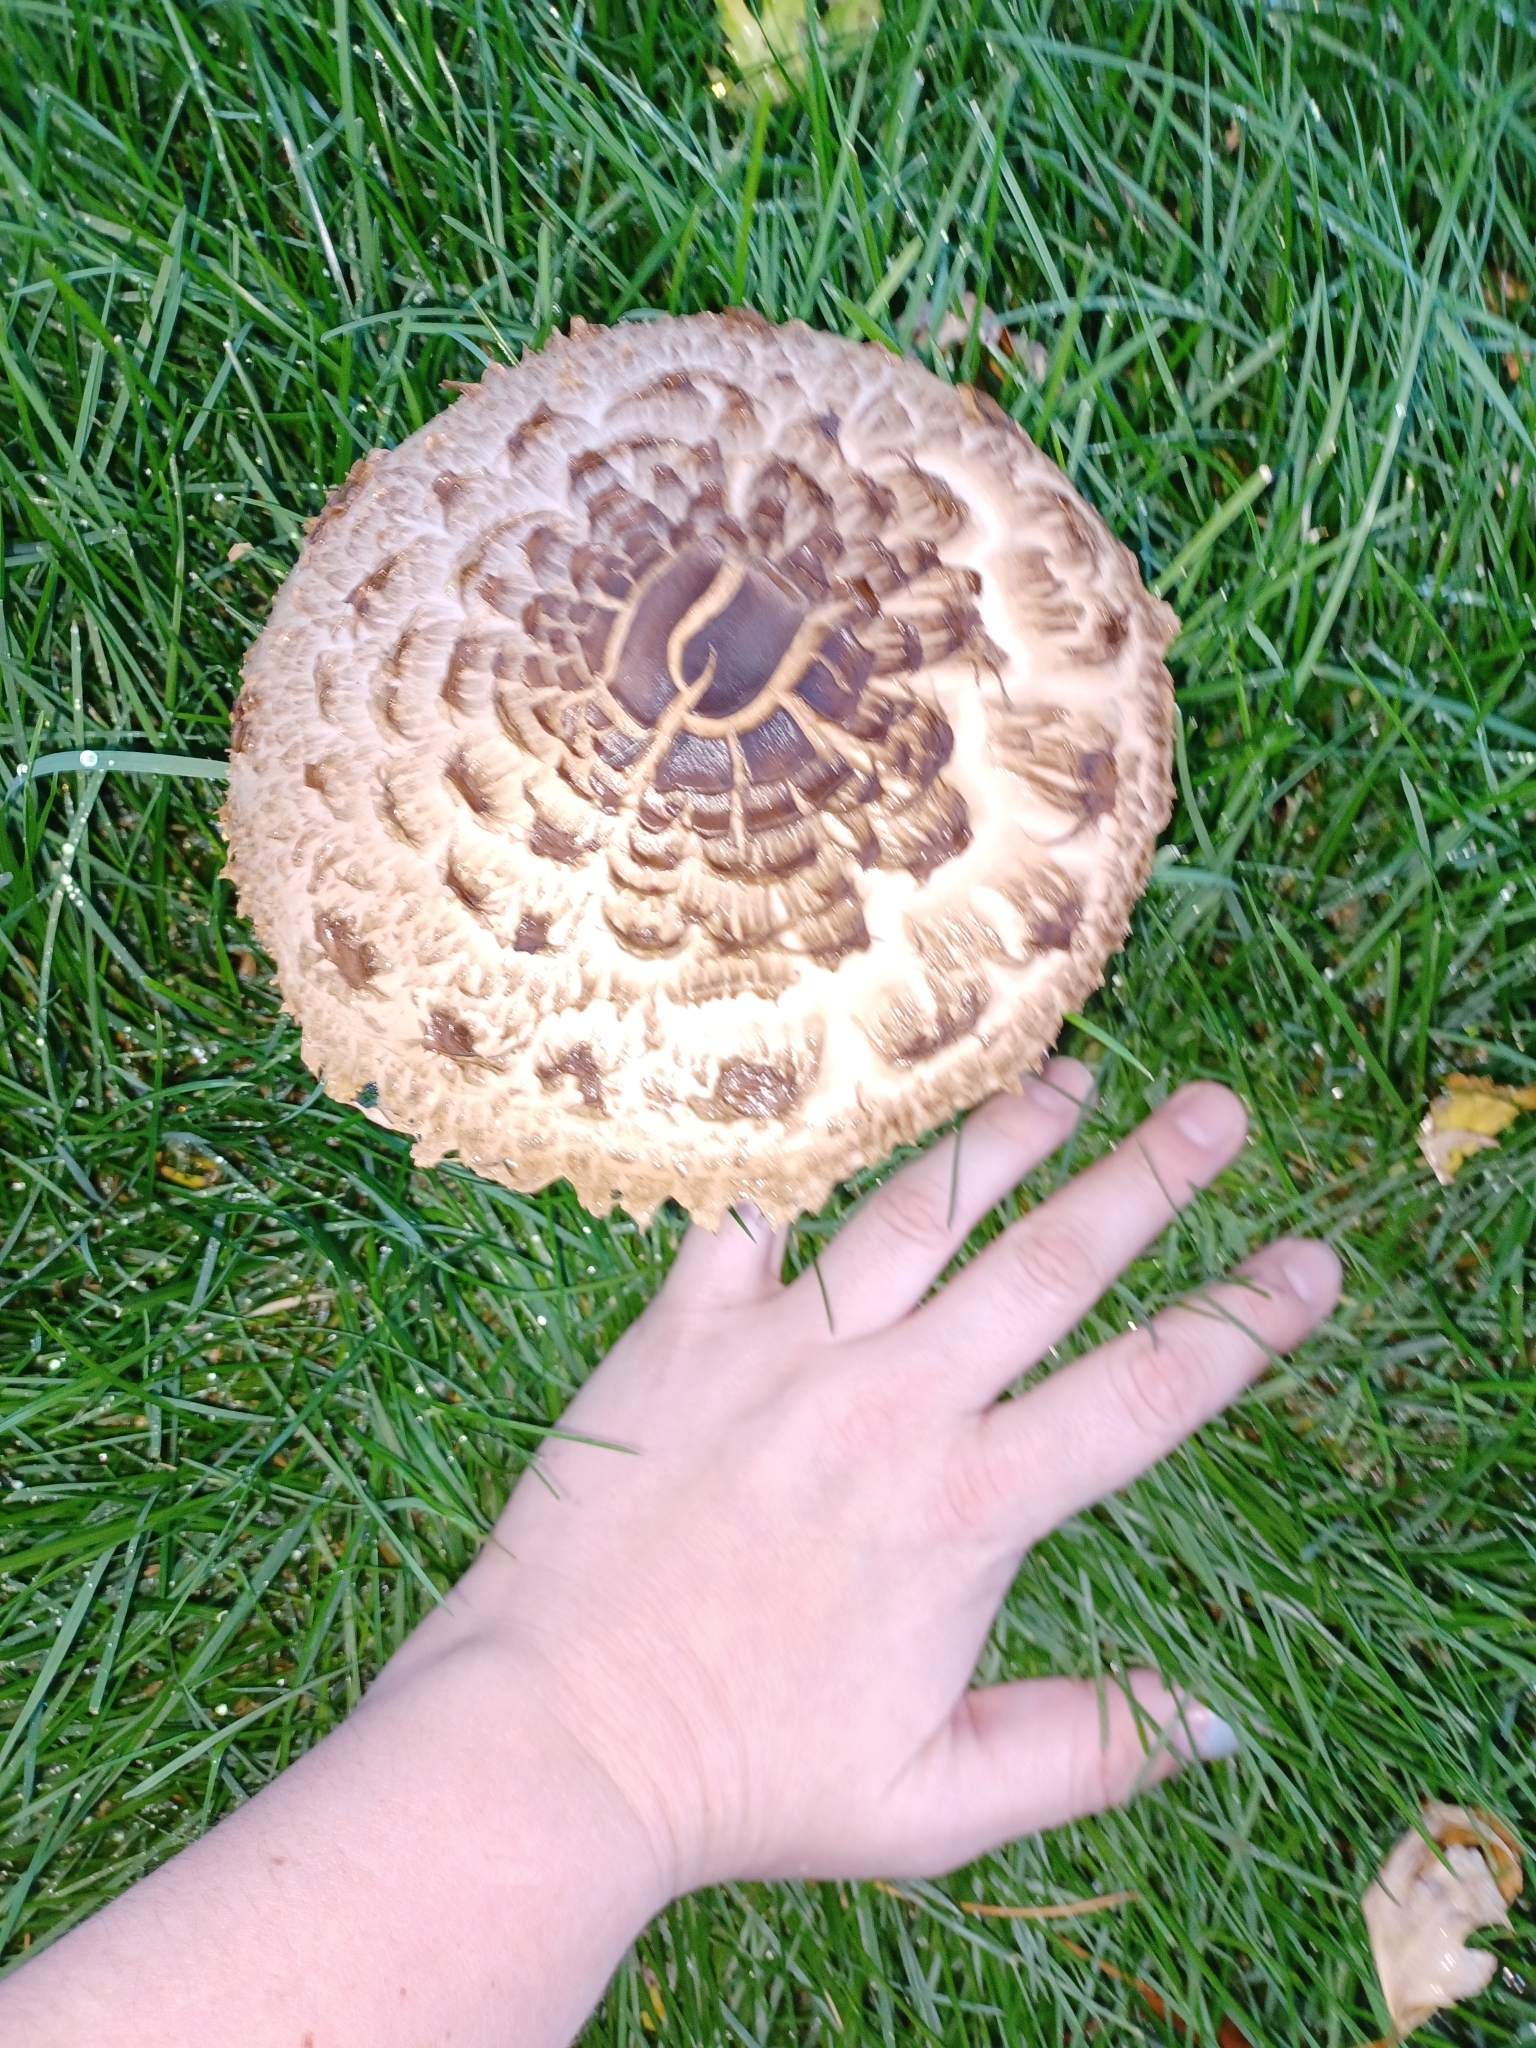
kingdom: Fungi
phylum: Basidiomycota
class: Agaricomycetes
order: Agaricales
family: Agaricaceae
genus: Chlorophyllum
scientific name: Chlorophyllum rhacodes
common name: Shaggy parasol
